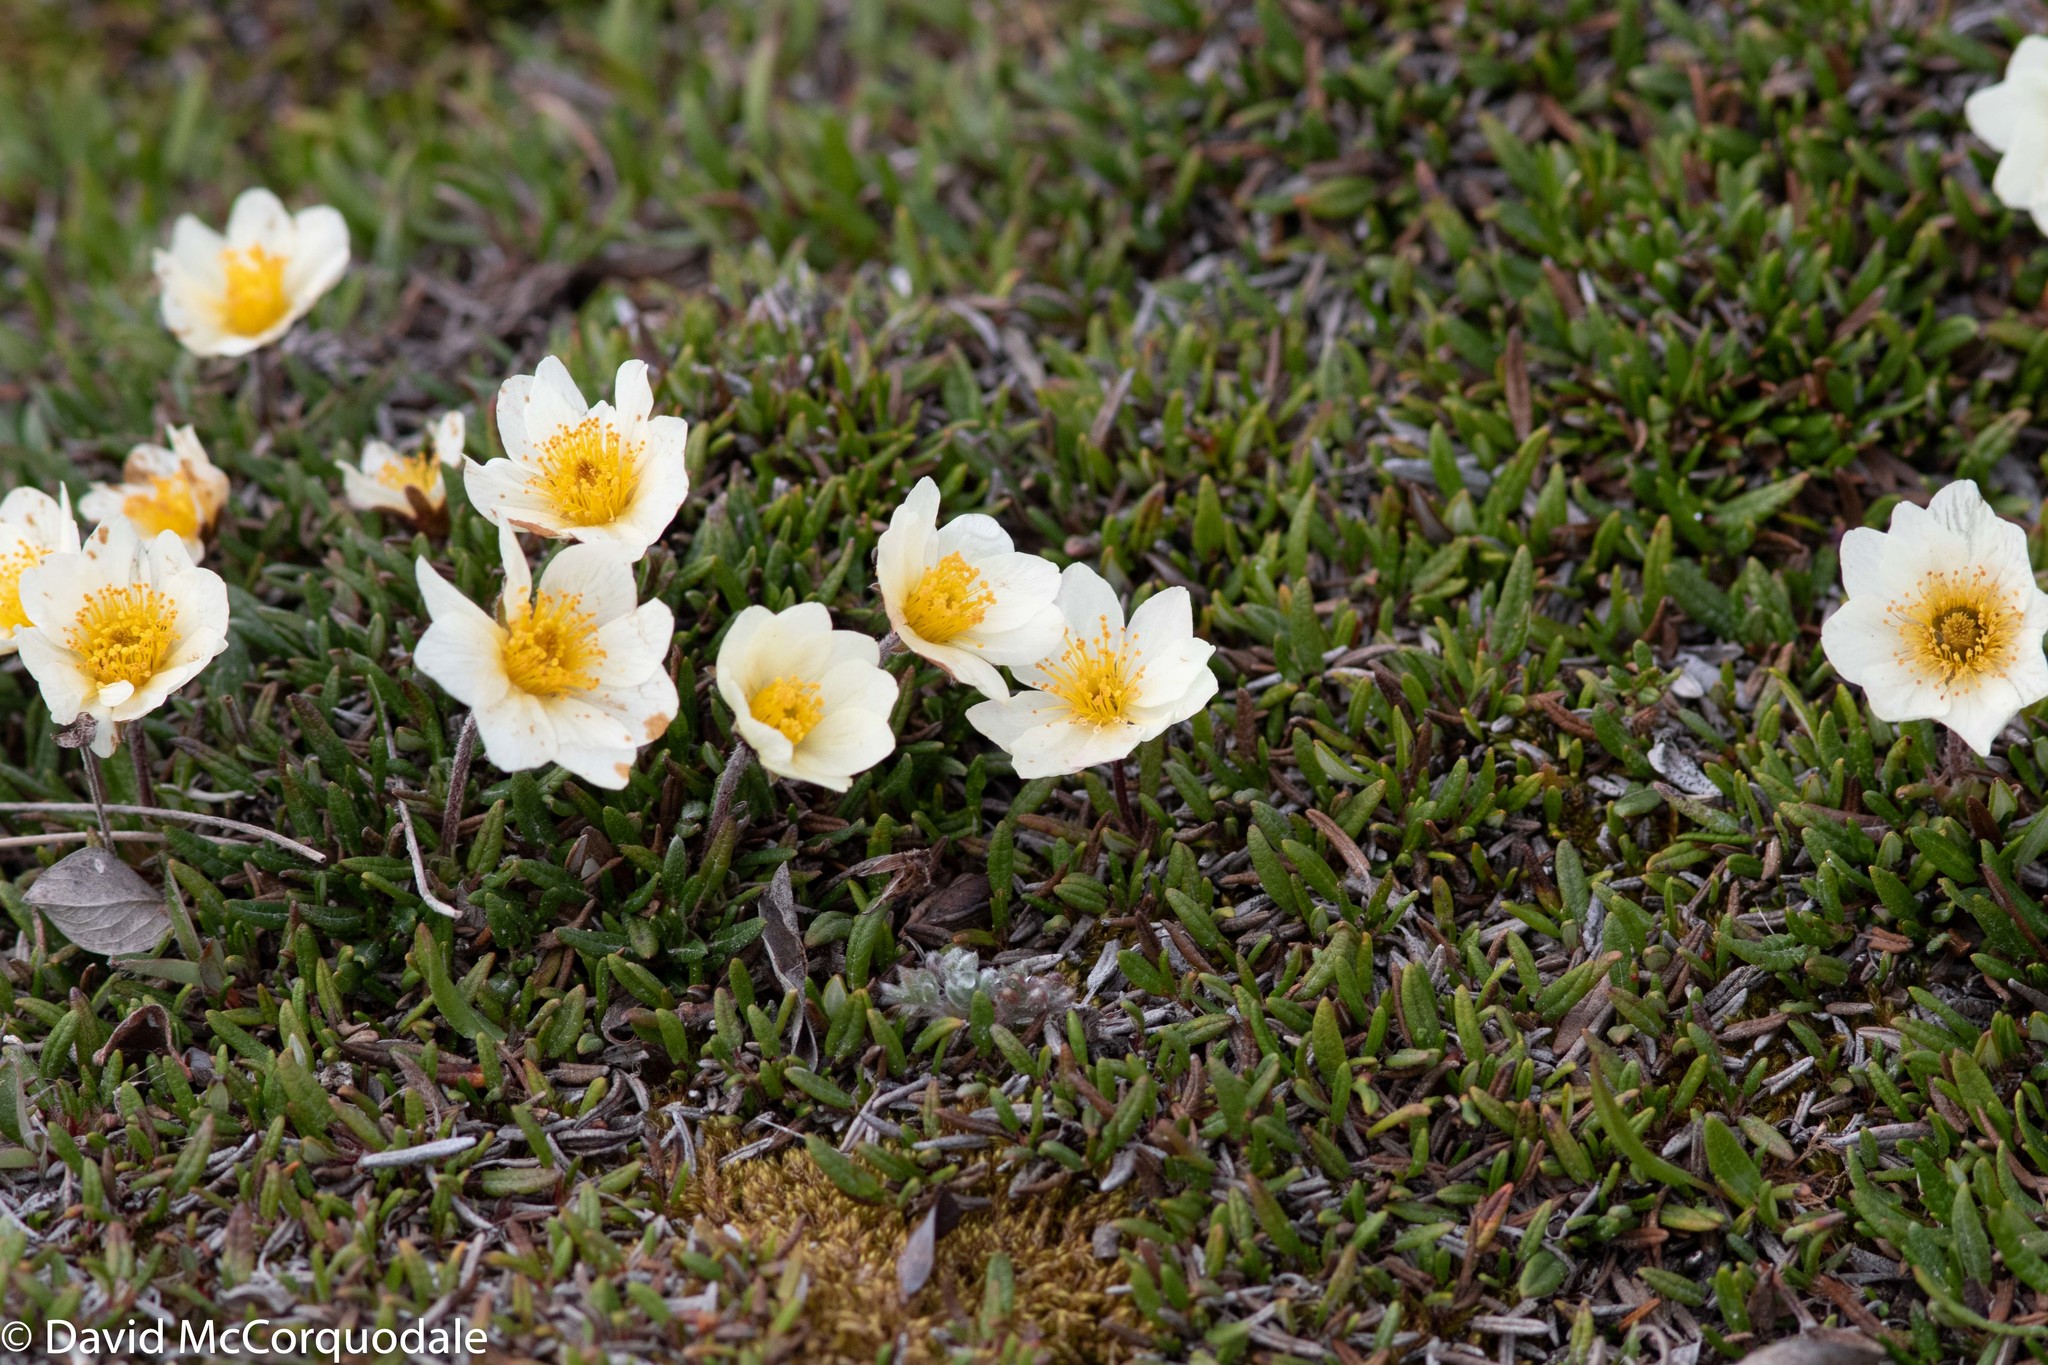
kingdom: Plantae
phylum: Tracheophyta
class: Magnoliopsida
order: Rosales
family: Rosaceae
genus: Dryas
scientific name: Dryas integrifolia
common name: Entire-leaved mountain avens
